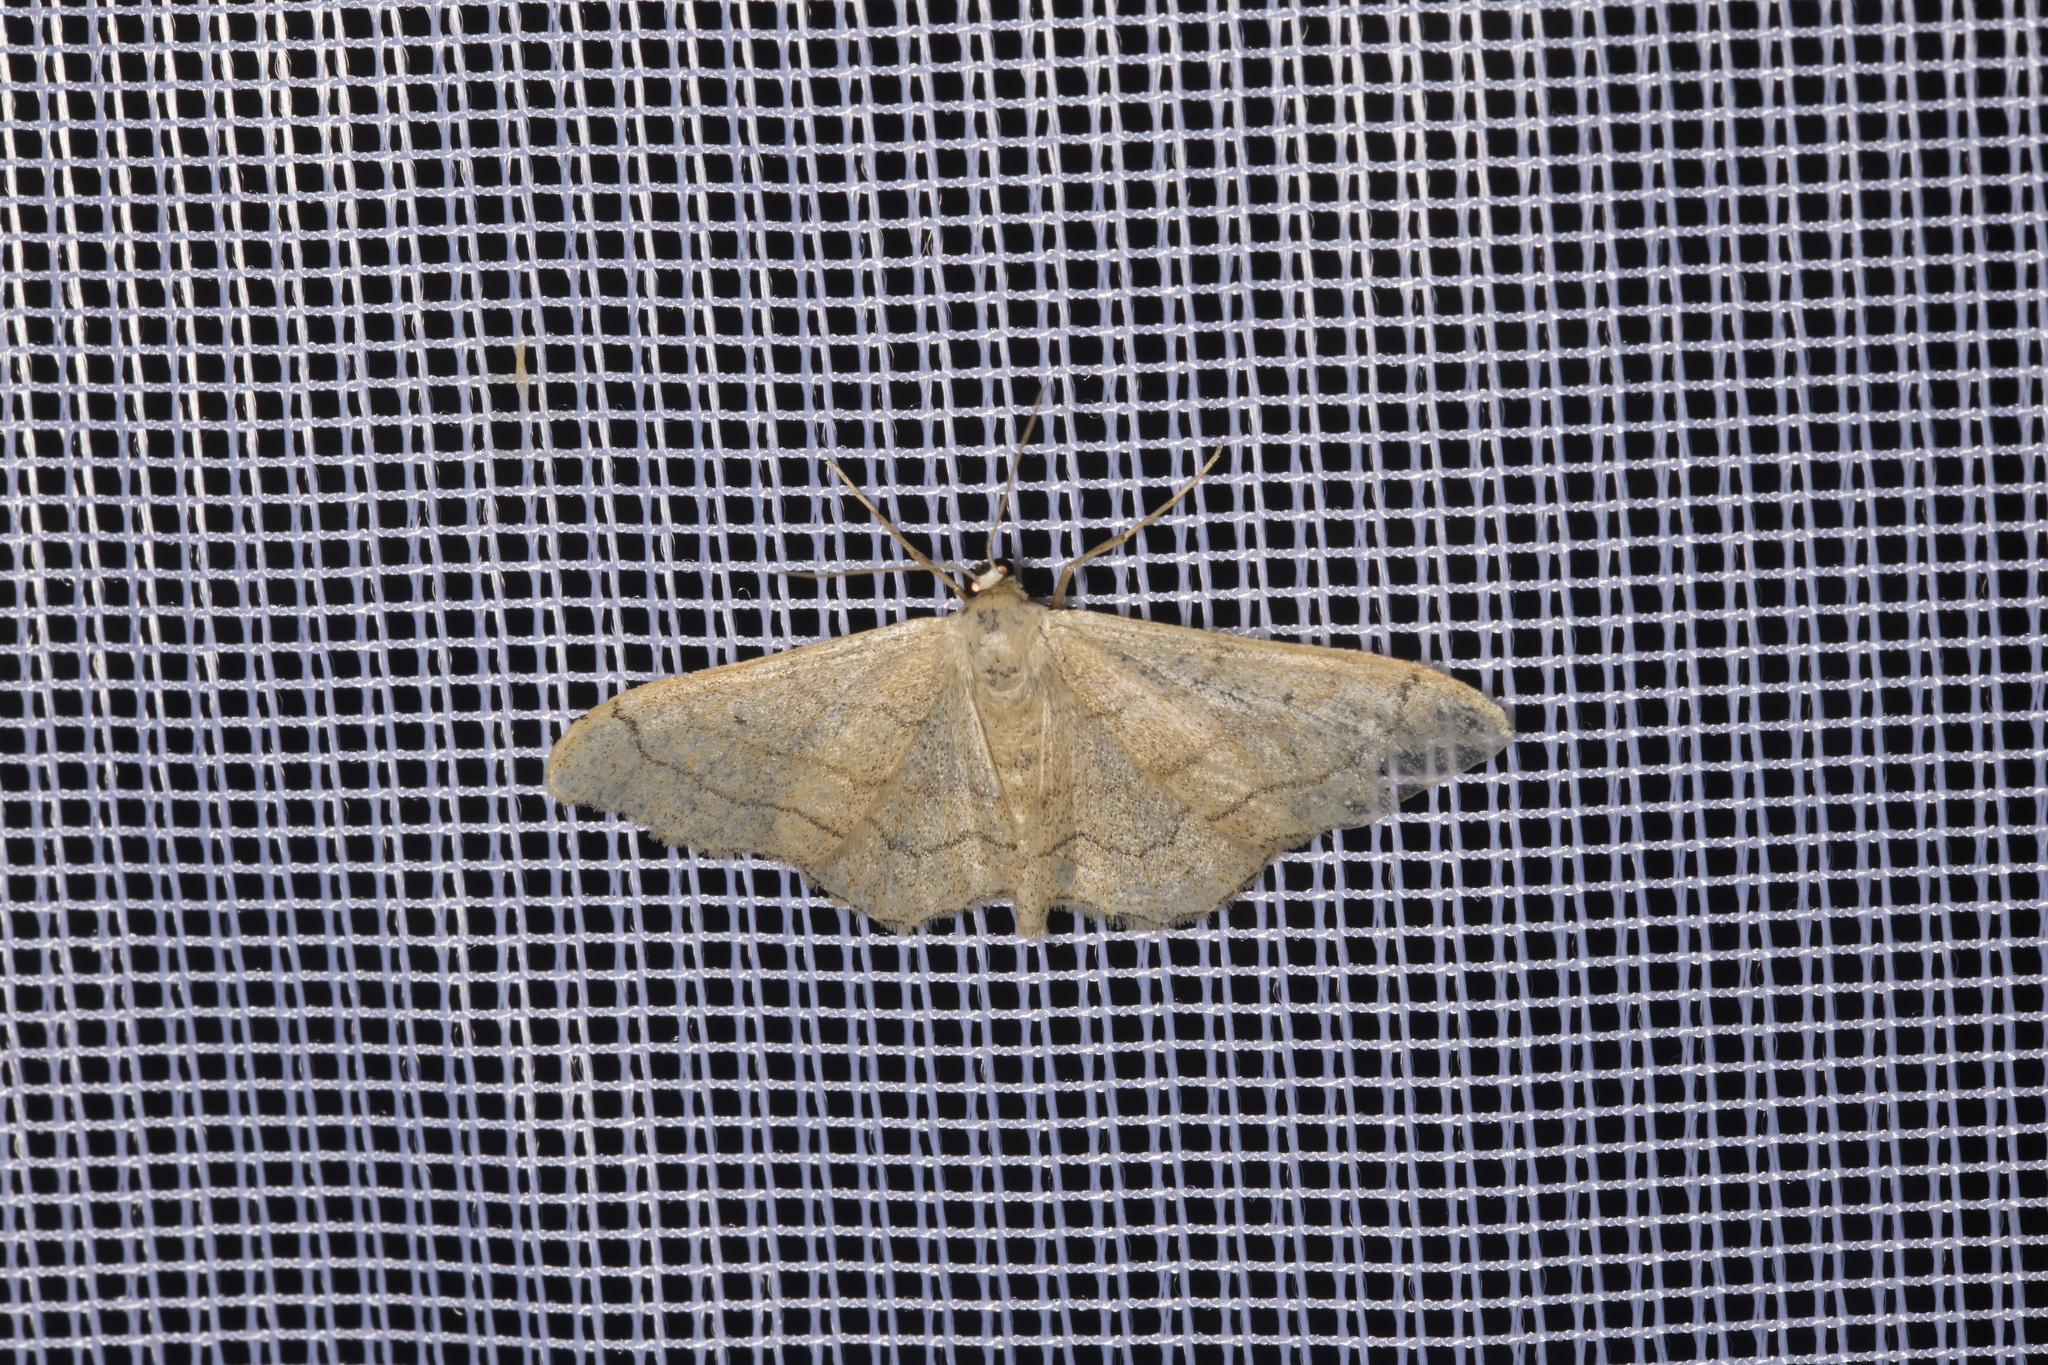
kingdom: Animalia
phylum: Arthropoda
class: Insecta
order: Lepidoptera
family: Geometridae
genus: Idaea
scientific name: Idaea aversata
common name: Riband wave
